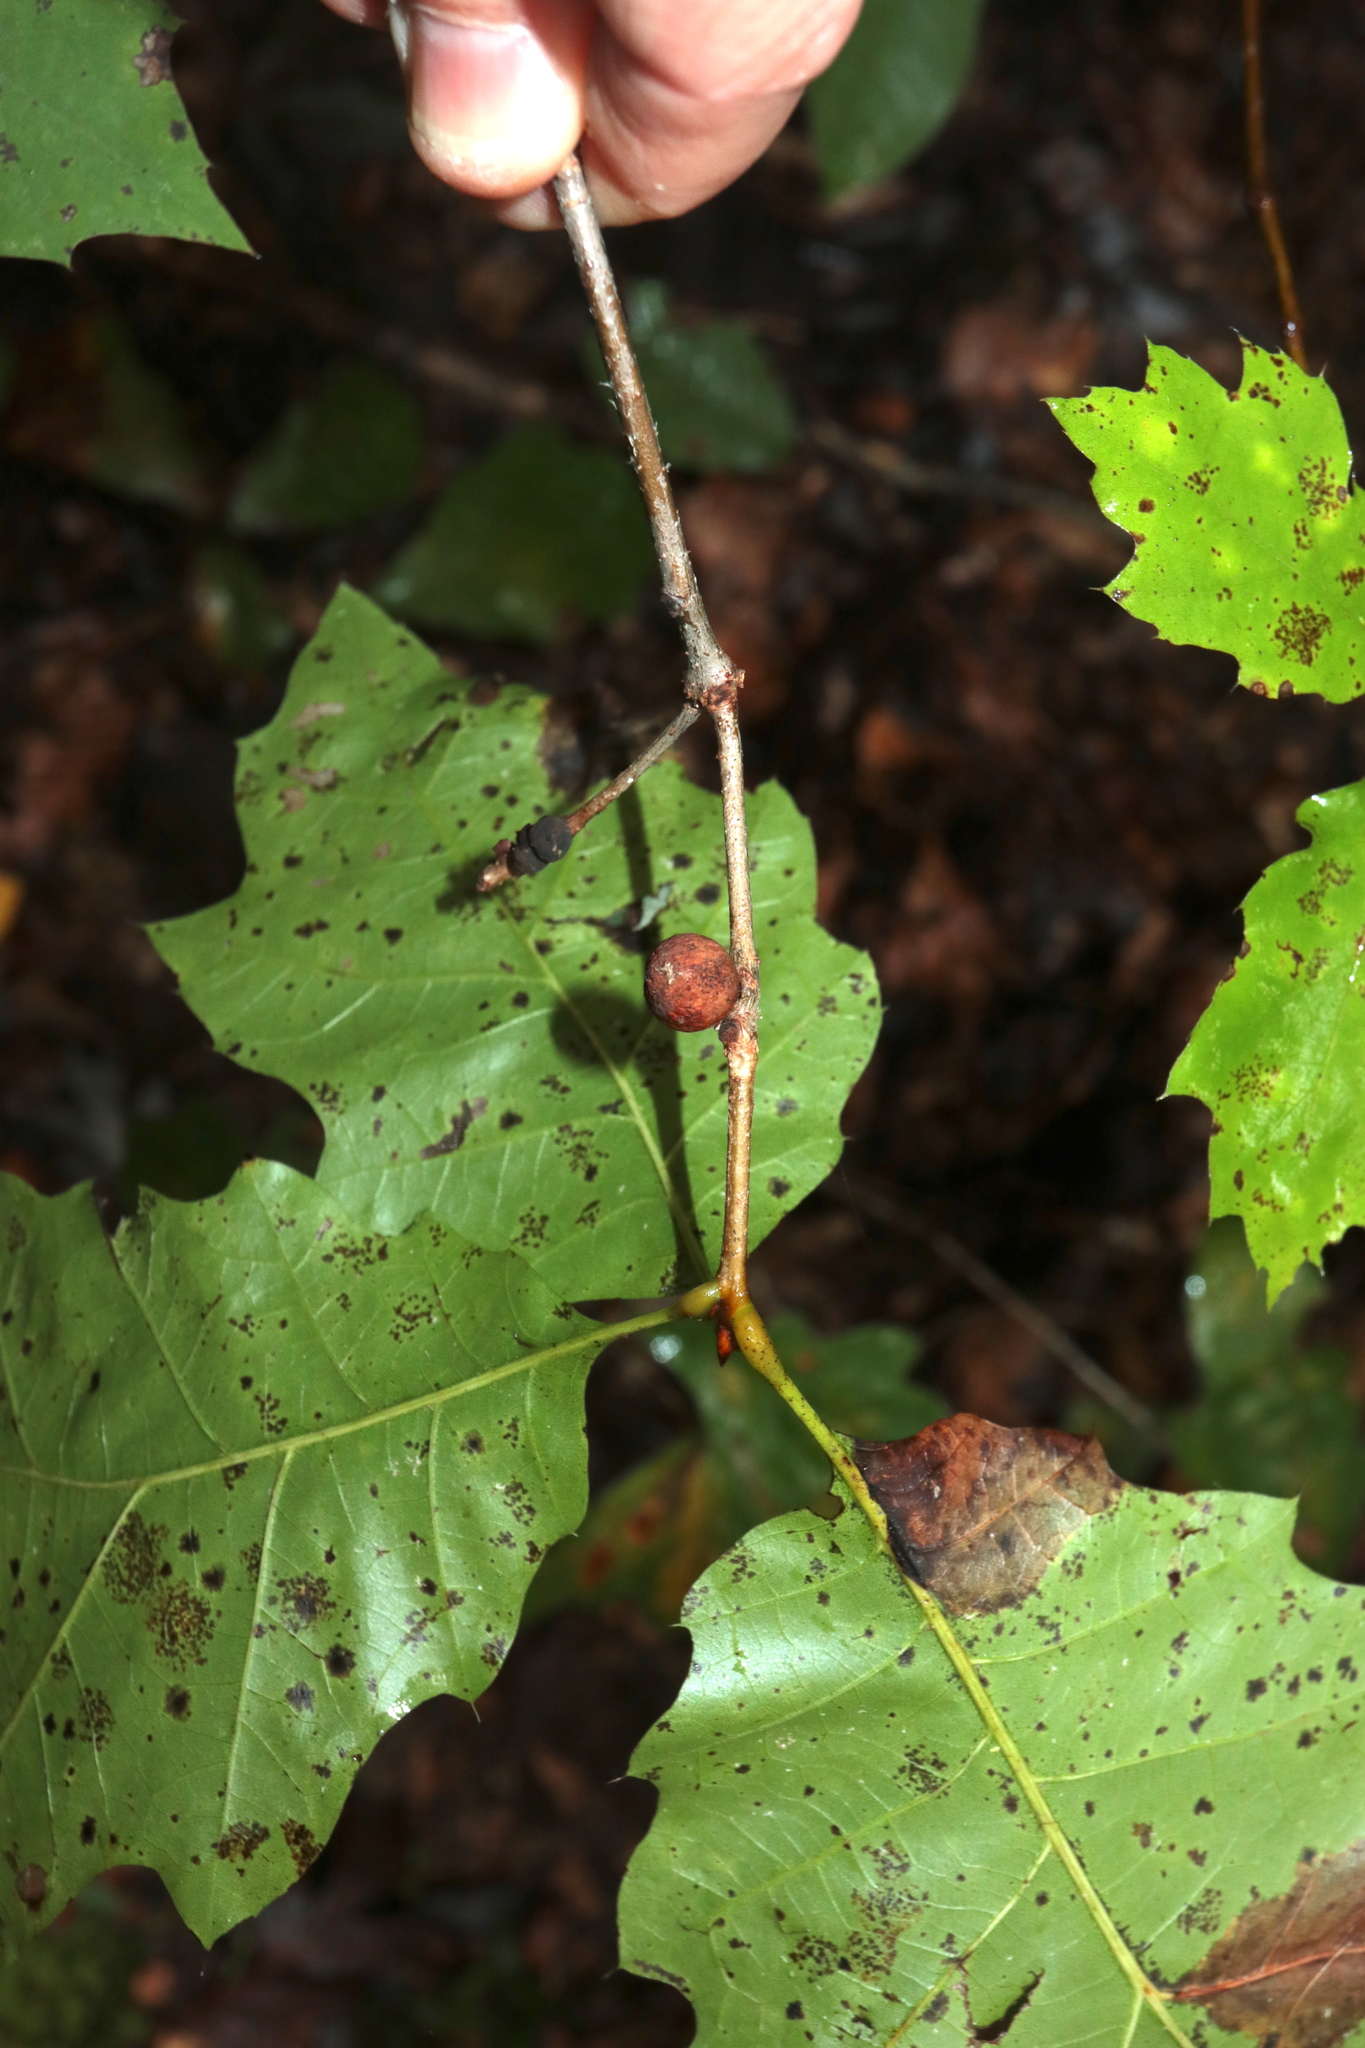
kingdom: Animalia
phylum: Arthropoda
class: Insecta
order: Hymenoptera
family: Cynipidae
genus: Kokkocynips
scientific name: Kokkocynips imbricariae
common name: Banded bullet gall wasp
